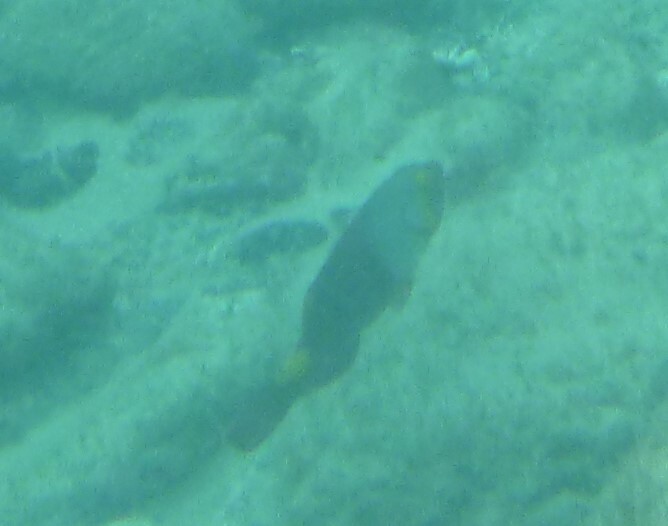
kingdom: Animalia
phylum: Chordata
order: Perciformes
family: Scaridae
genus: Sparisoma
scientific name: Sparisoma cretense
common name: Parrotfish
